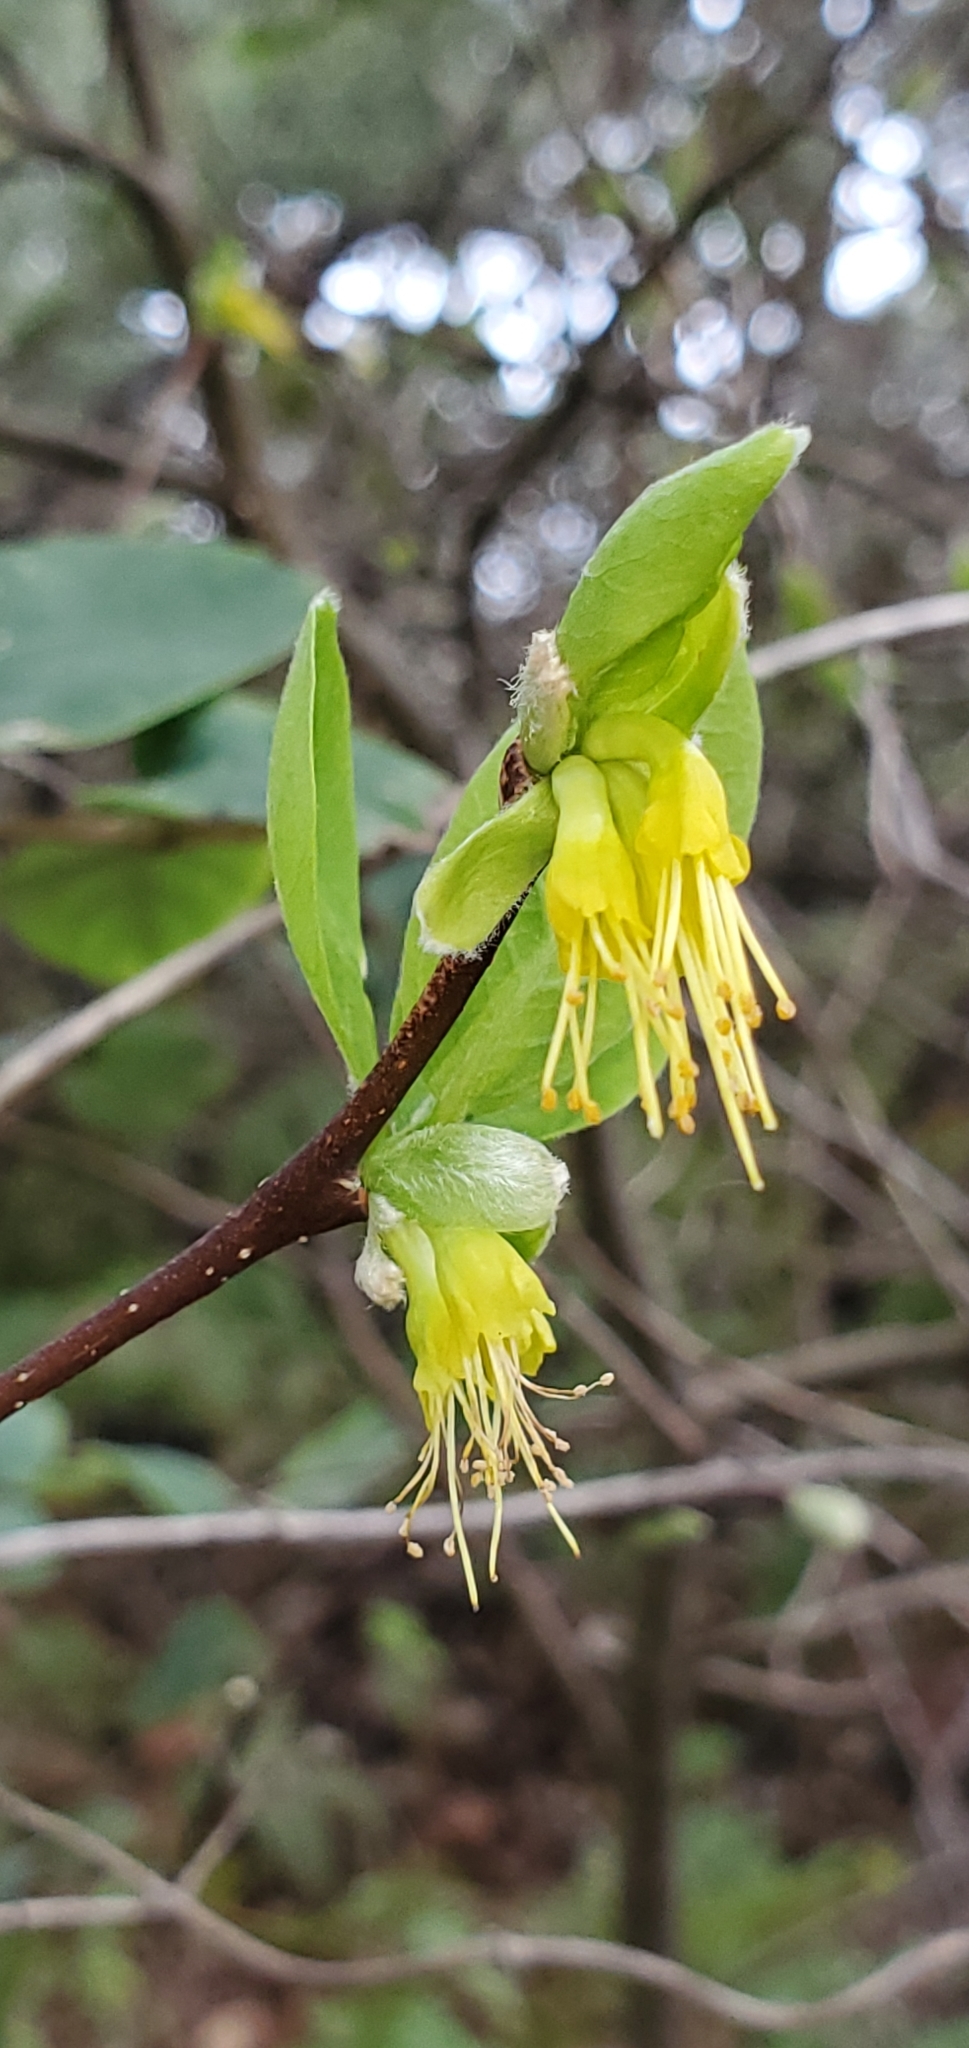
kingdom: Plantae
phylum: Tracheophyta
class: Magnoliopsida
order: Malvales
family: Thymelaeaceae
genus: Dirca
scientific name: Dirca occidentalis
